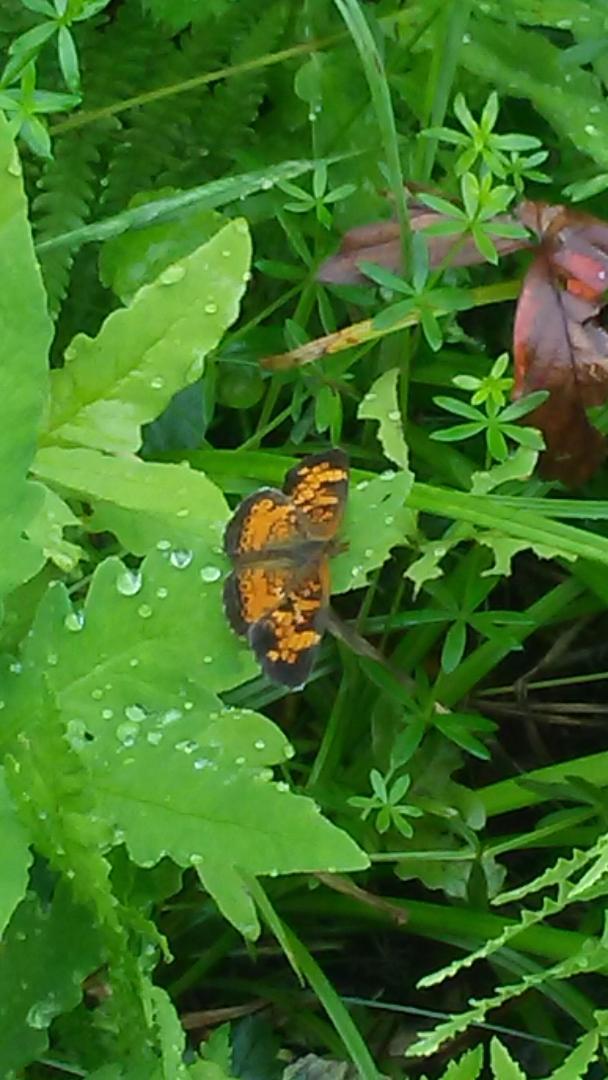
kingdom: Animalia
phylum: Arthropoda
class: Insecta
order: Lepidoptera
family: Nymphalidae
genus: Phyciodes
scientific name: Phyciodes tharos
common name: Pearl crescent
